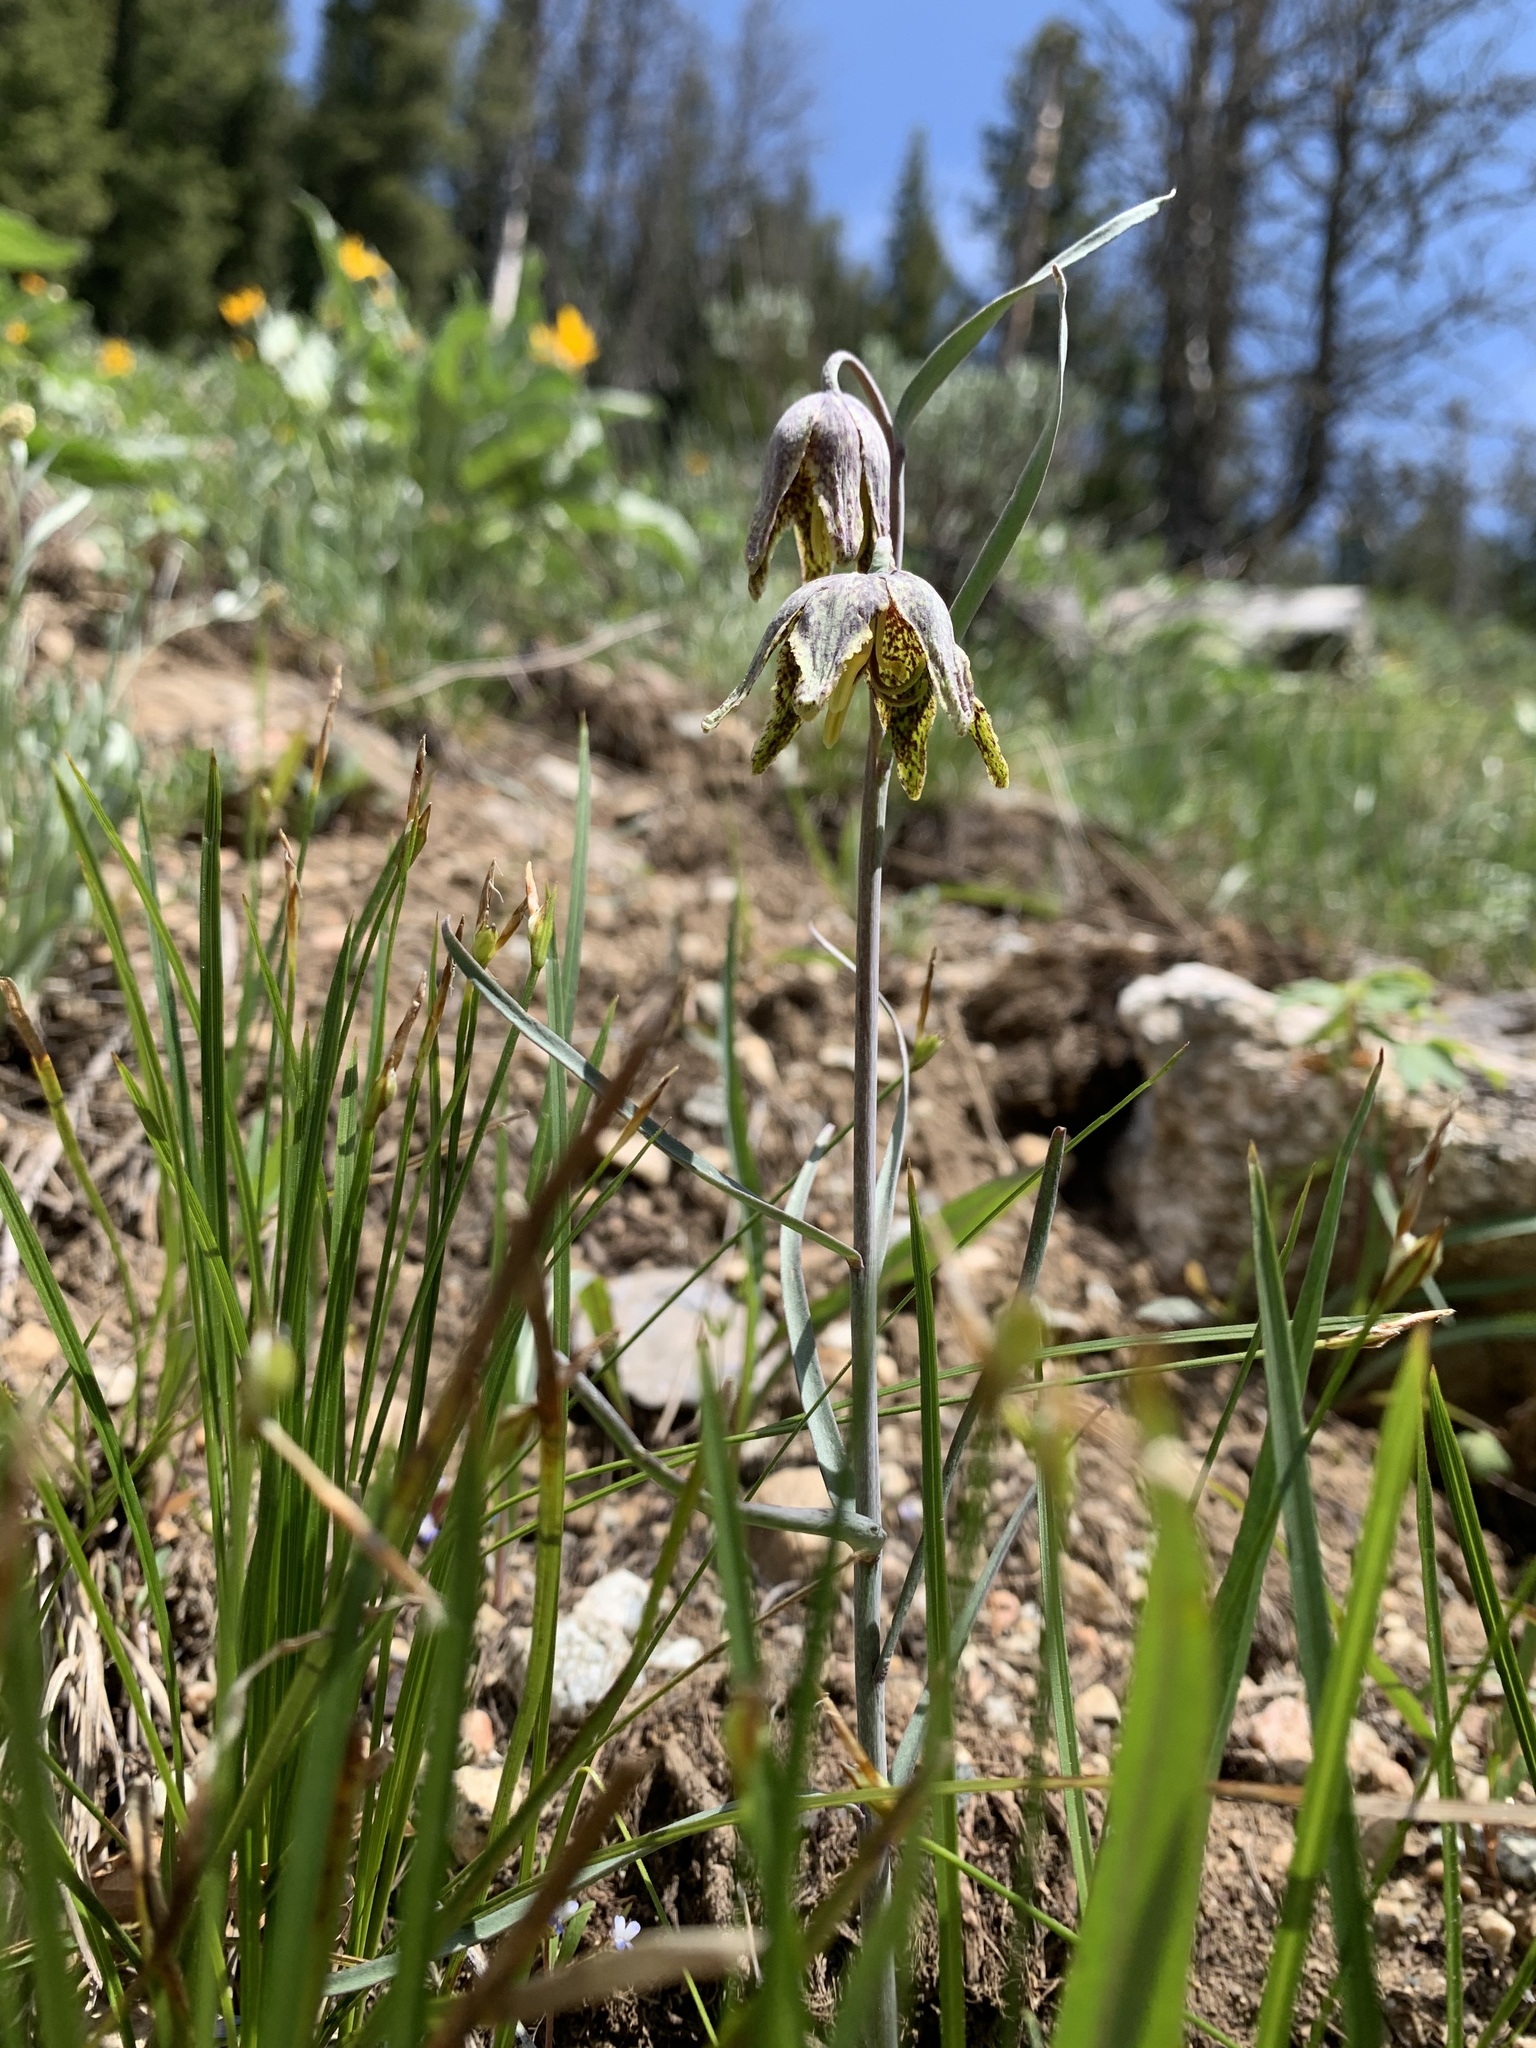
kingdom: Plantae
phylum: Tracheophyta
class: Liliopsida
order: Liliales
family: Liliaceae
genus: Fritillaria
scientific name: Fritillaria atropurpurea
